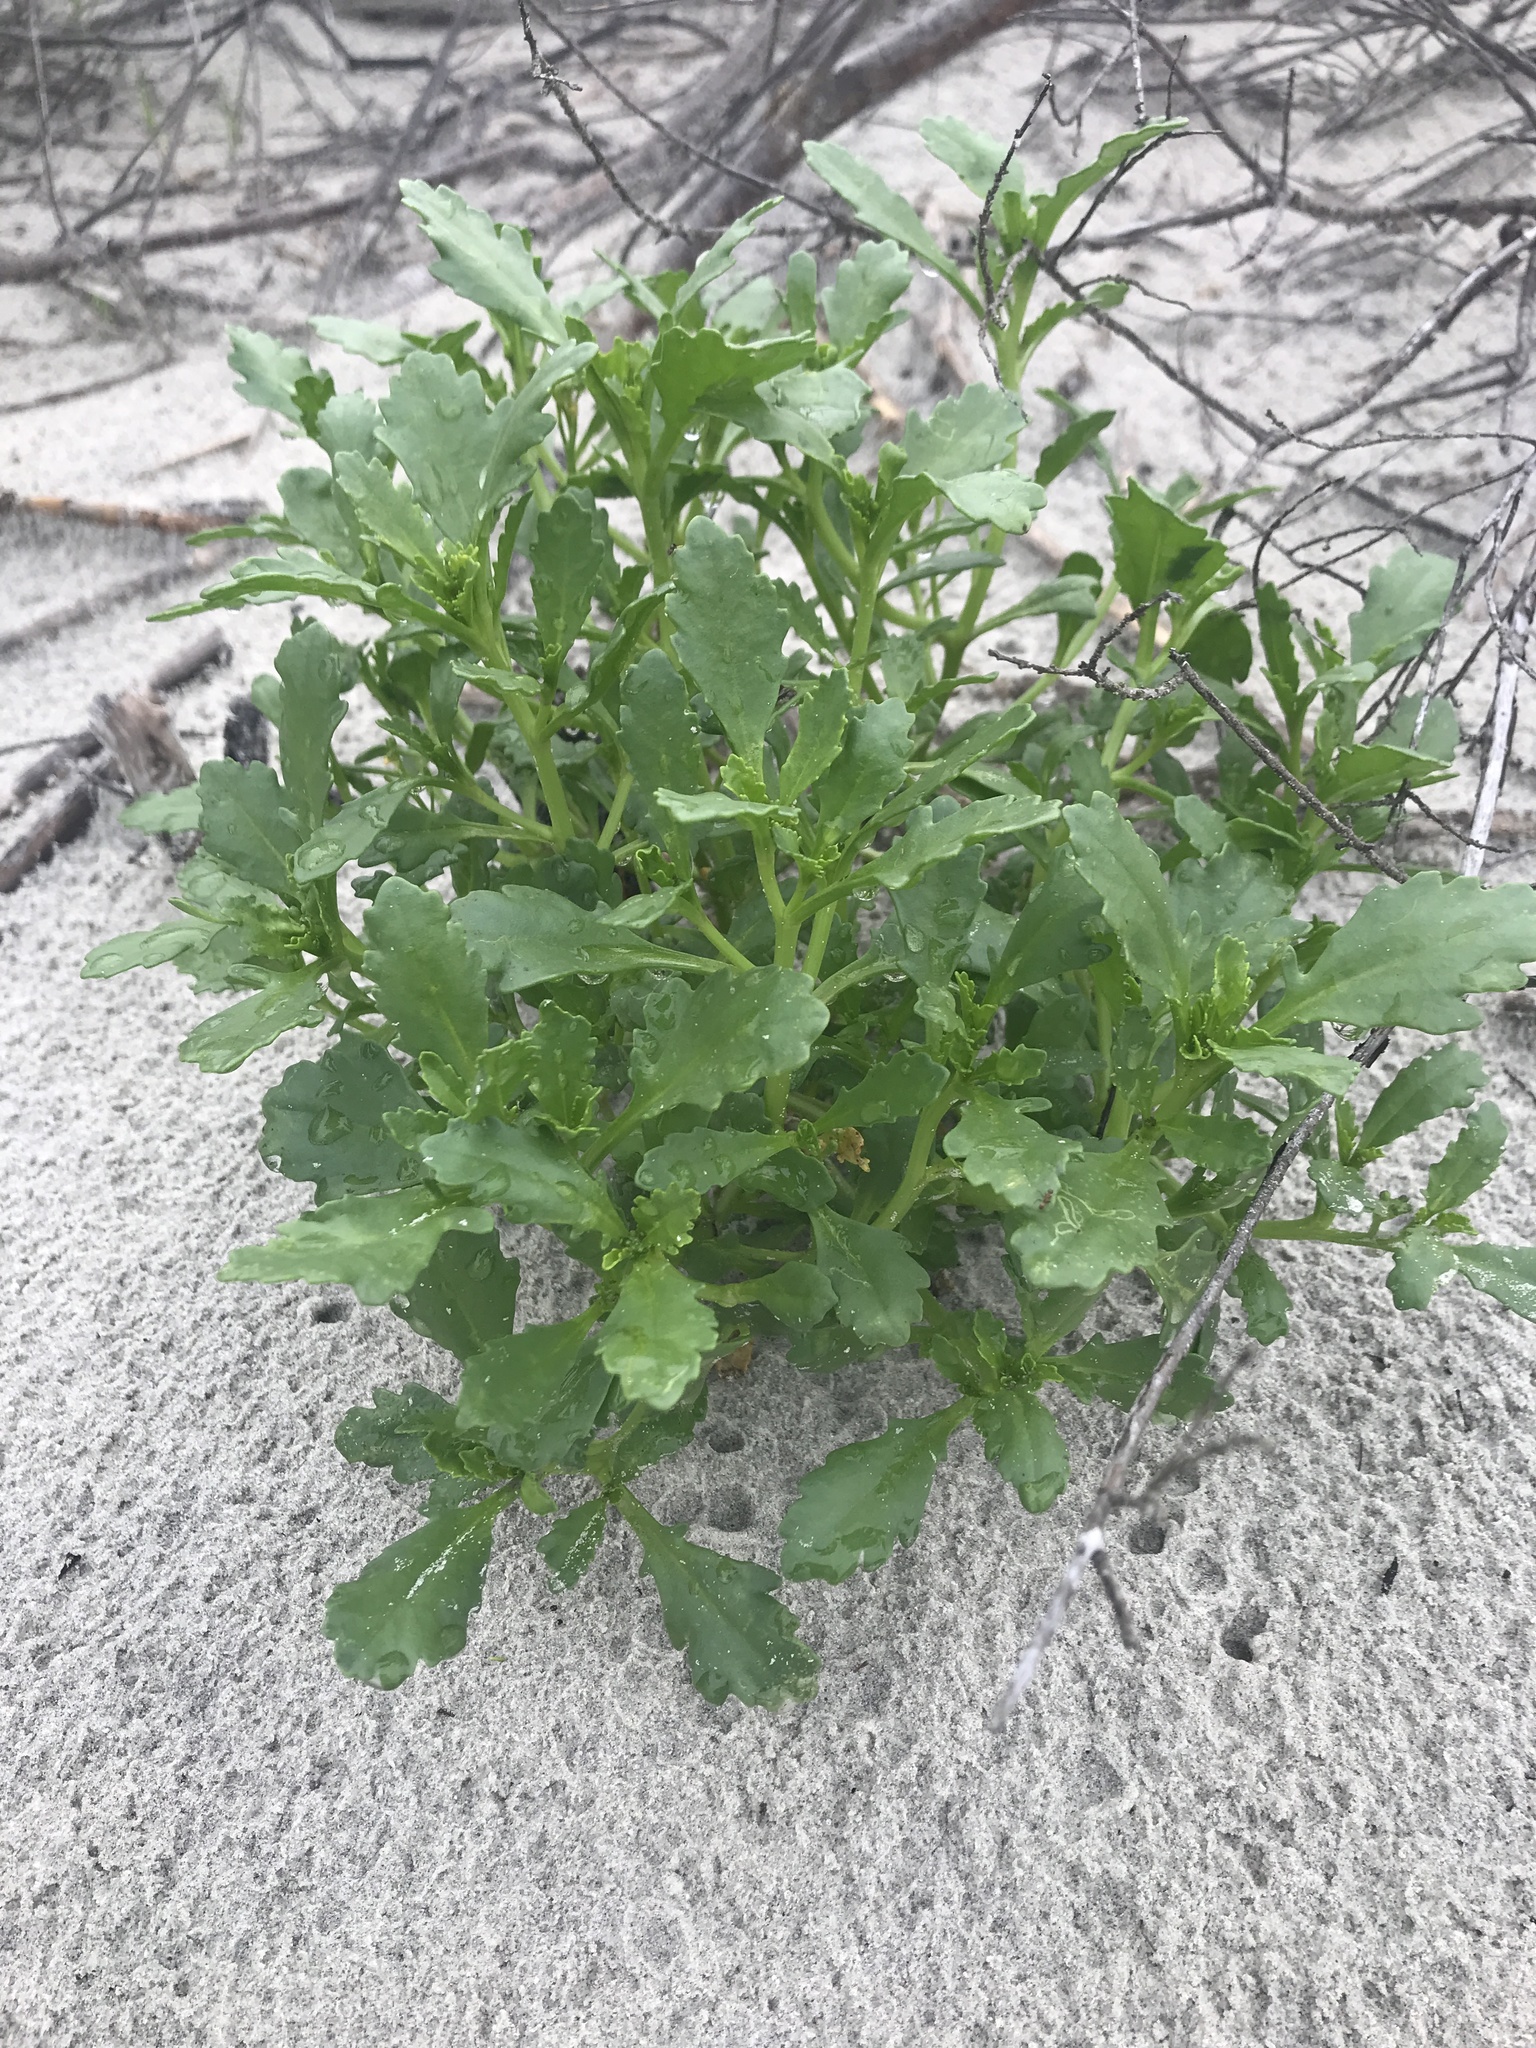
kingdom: Plantae
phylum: Tracheophyta
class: Magnoliopsida
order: Brassicales
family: Brassicaceae
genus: Cakile
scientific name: Cakile edentula
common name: American sea rocket
